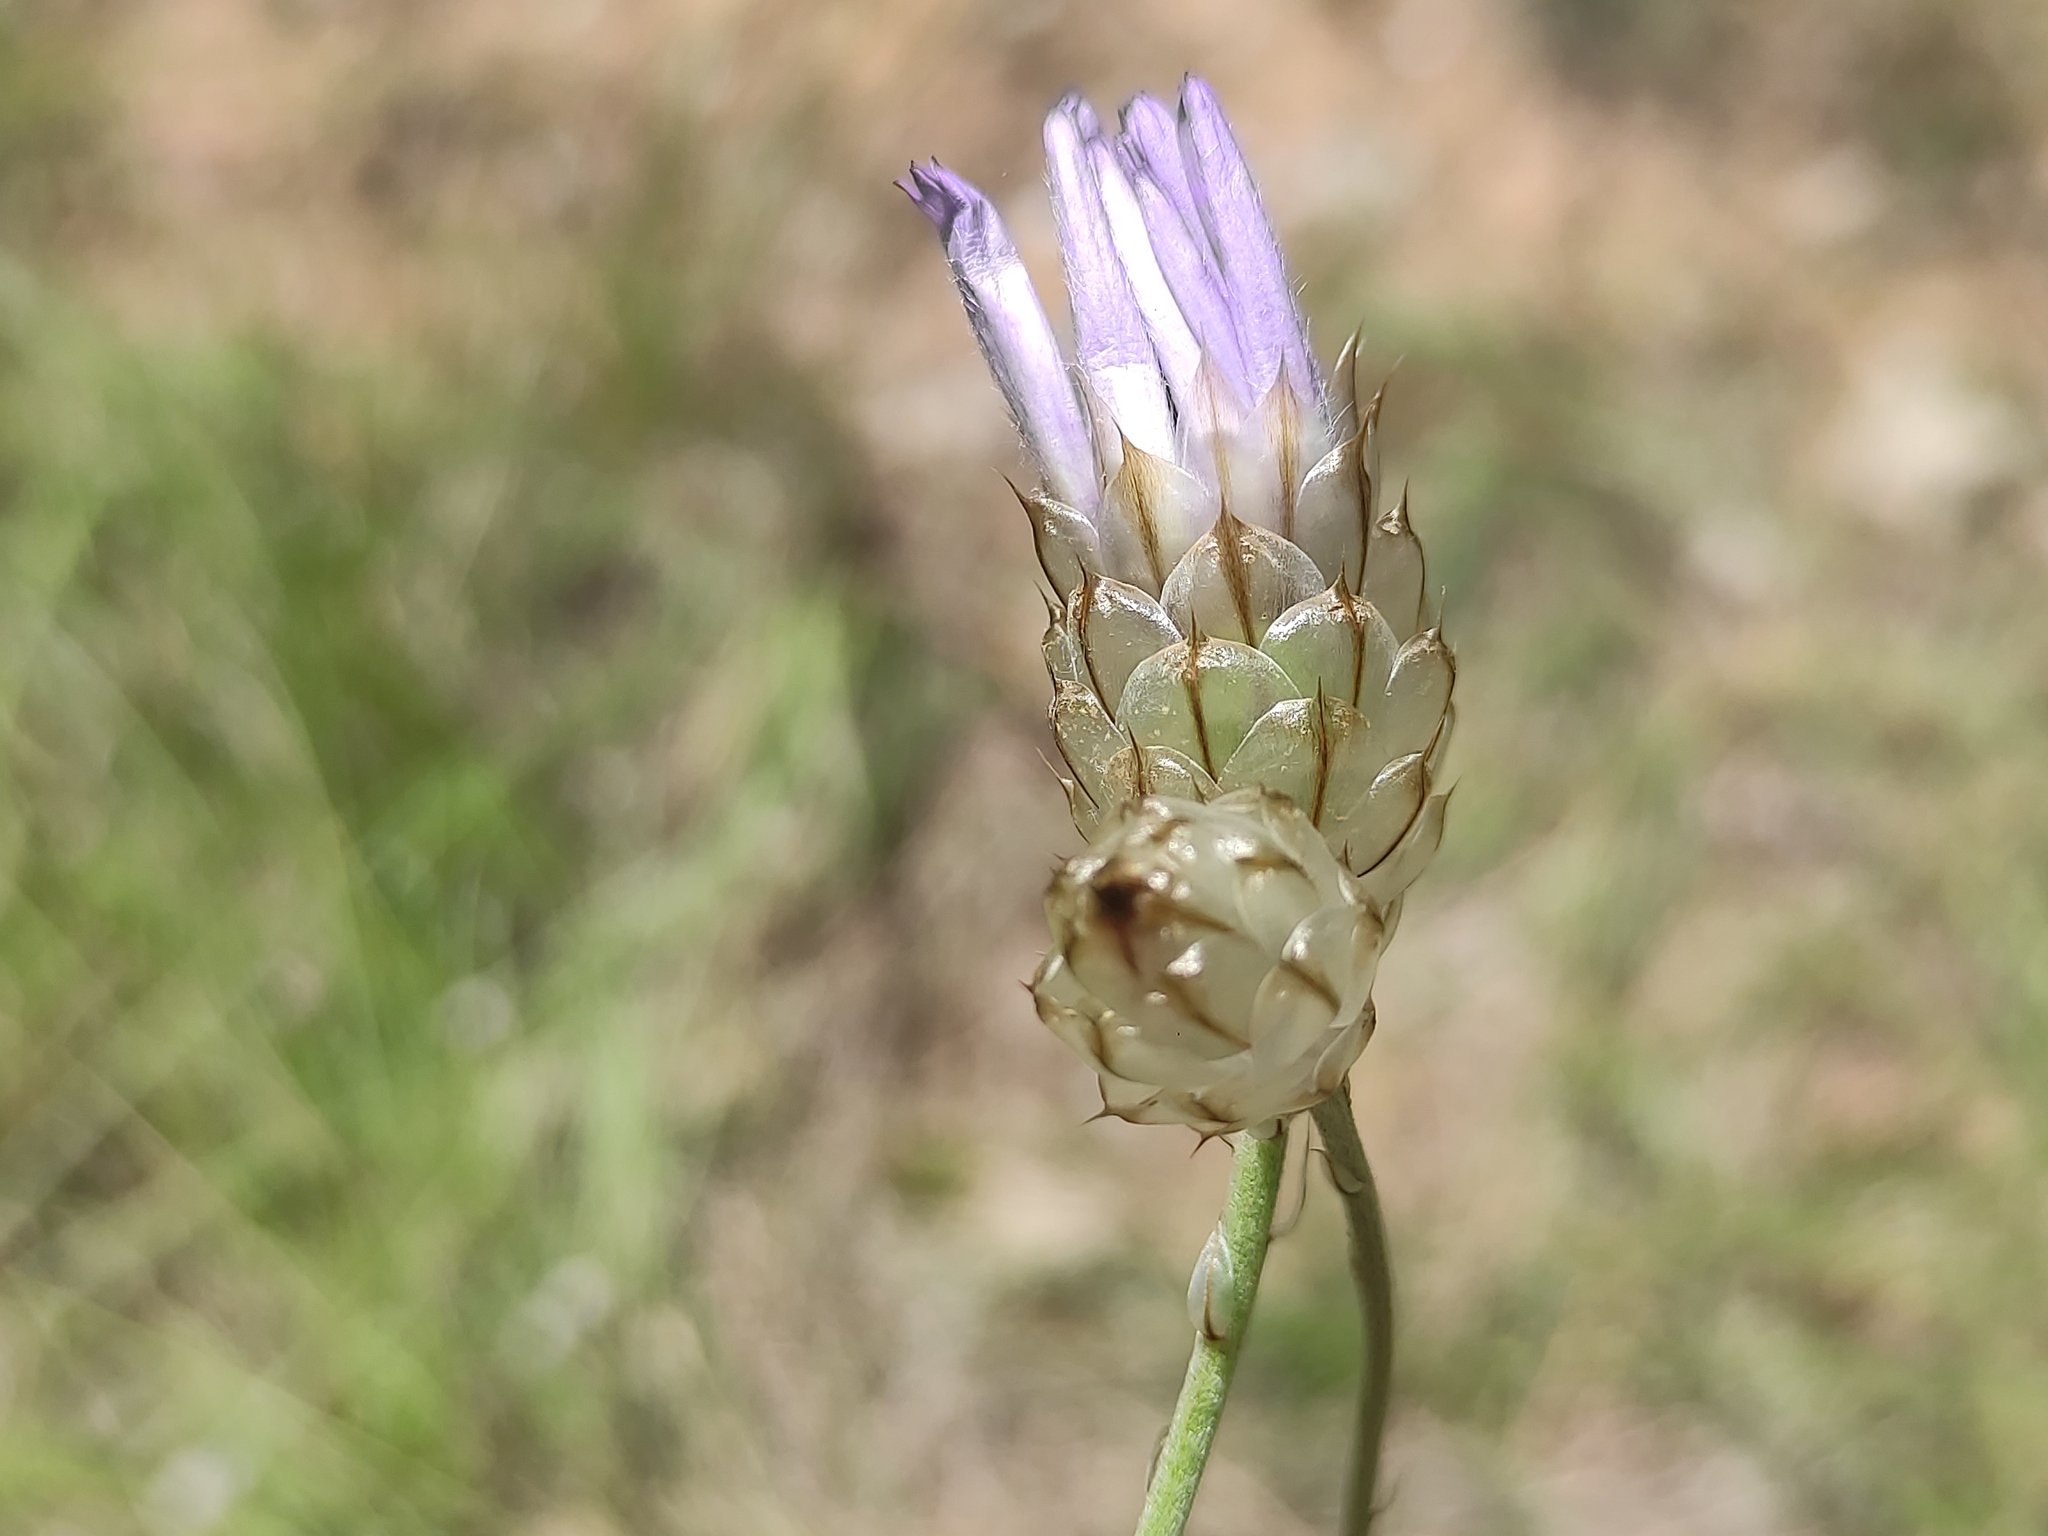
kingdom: Plantae
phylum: Tracheophyta
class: Magnoliopsida
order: Asterales
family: Asteraceae
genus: Catananche
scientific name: Catananche caerulea
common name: Blue cupidone
